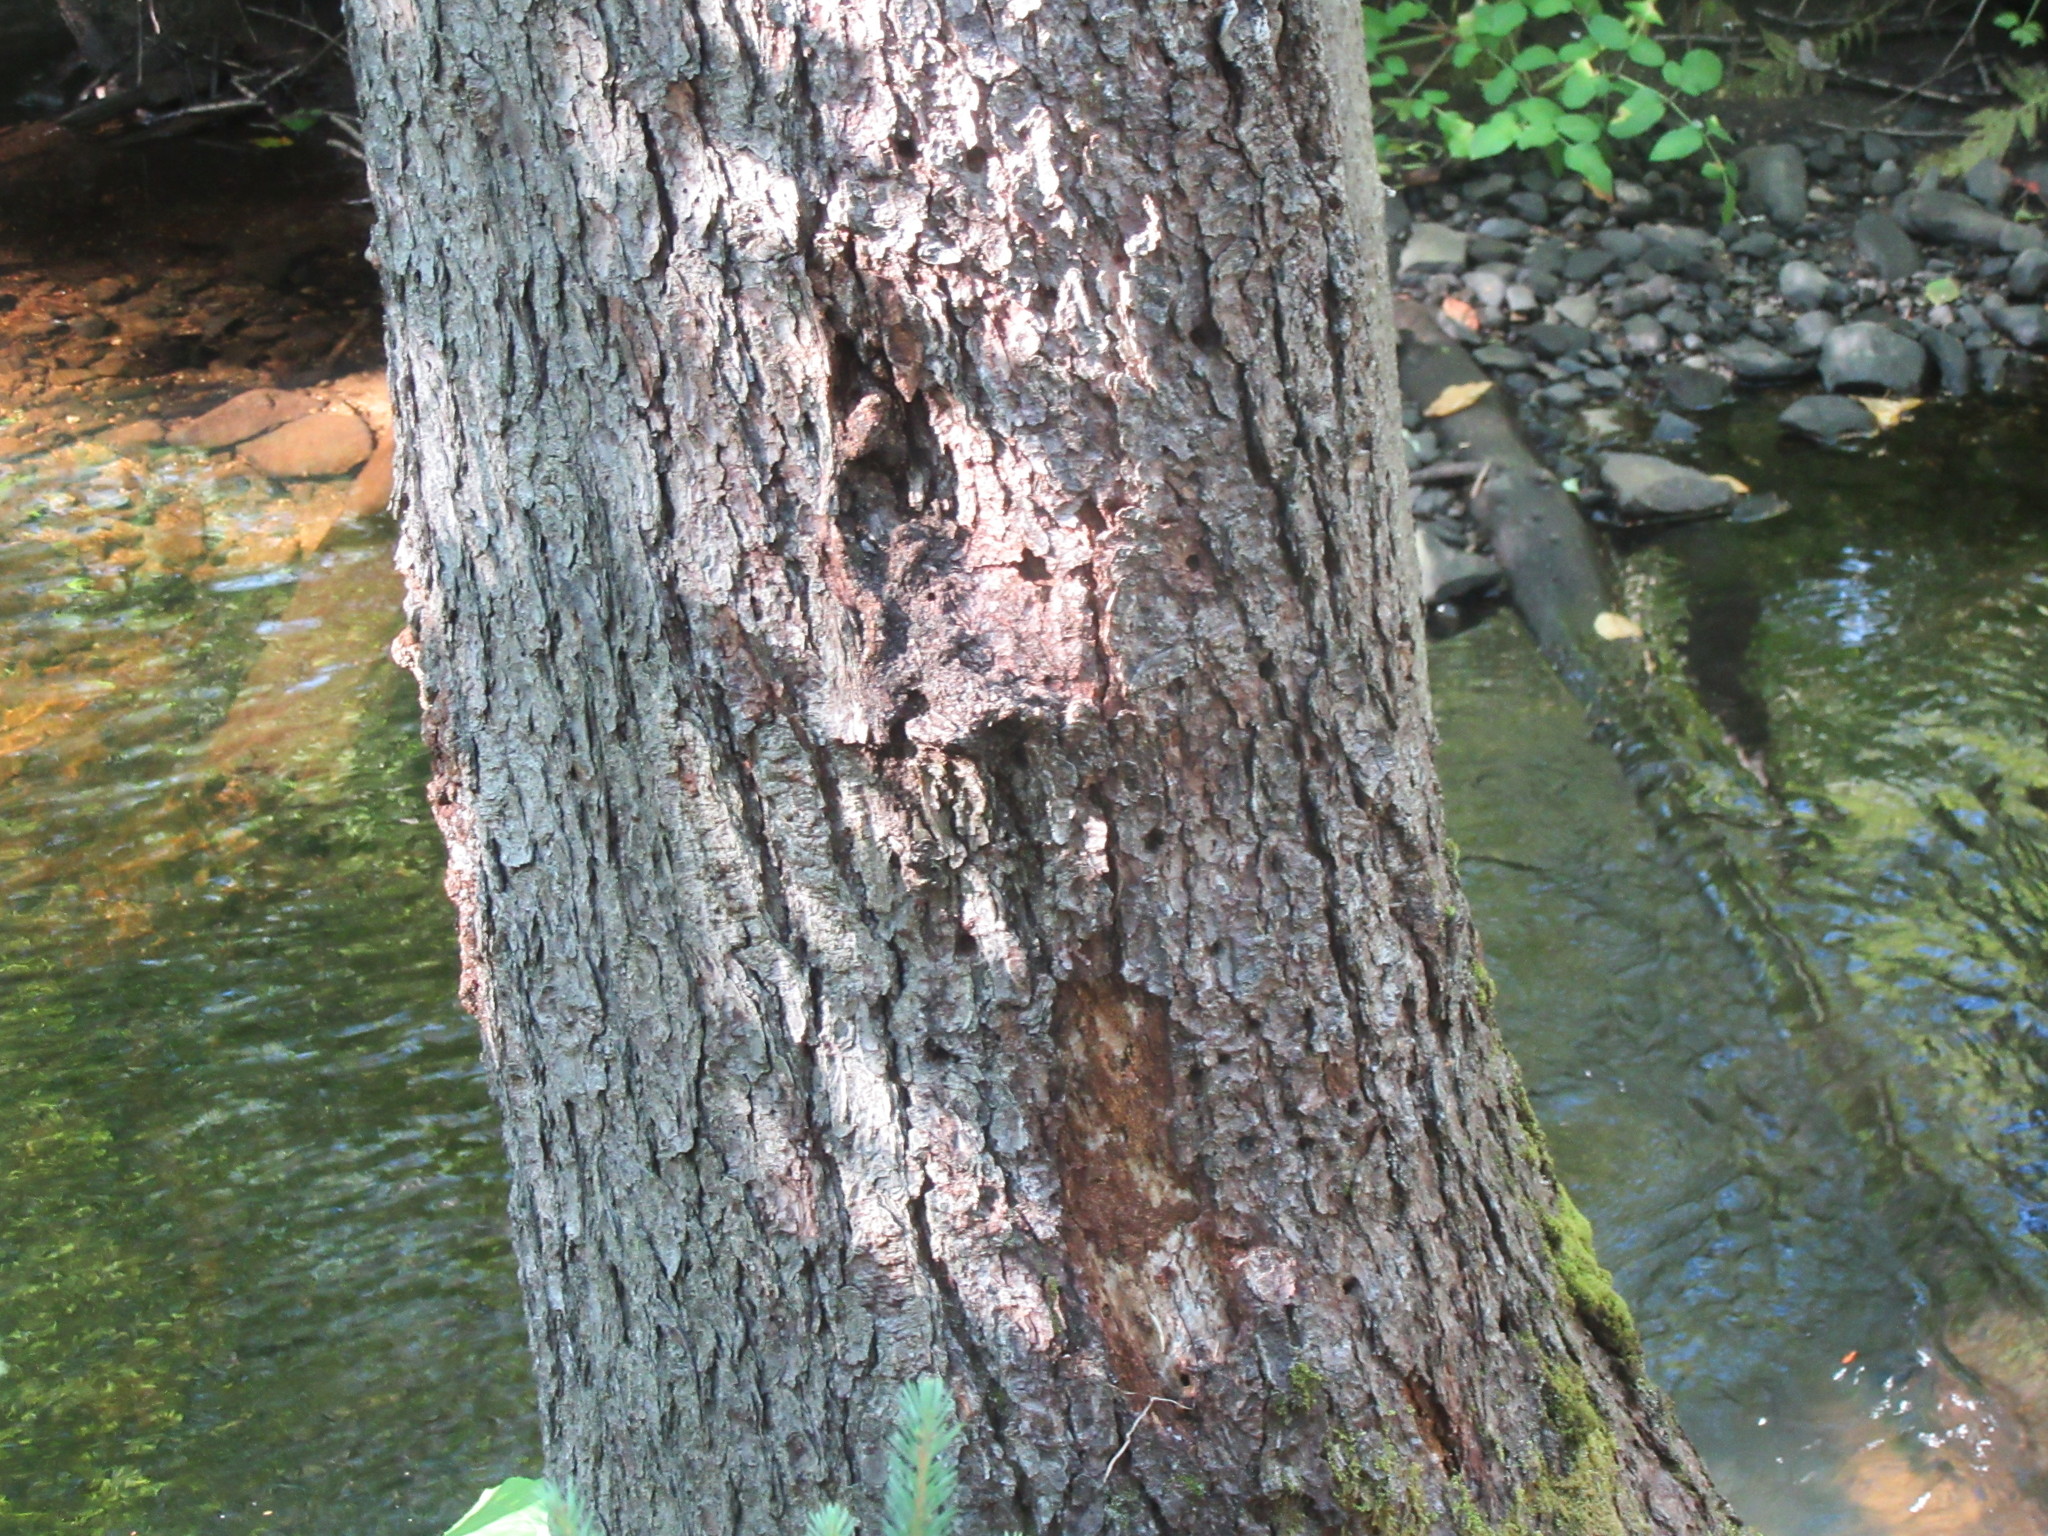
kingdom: Animalia
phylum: Chordata
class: Aves
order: Piciformes
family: Picidae
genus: Sphyrapicus
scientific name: Sphyrapicus varius
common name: Yellow-bellied sapsucker
